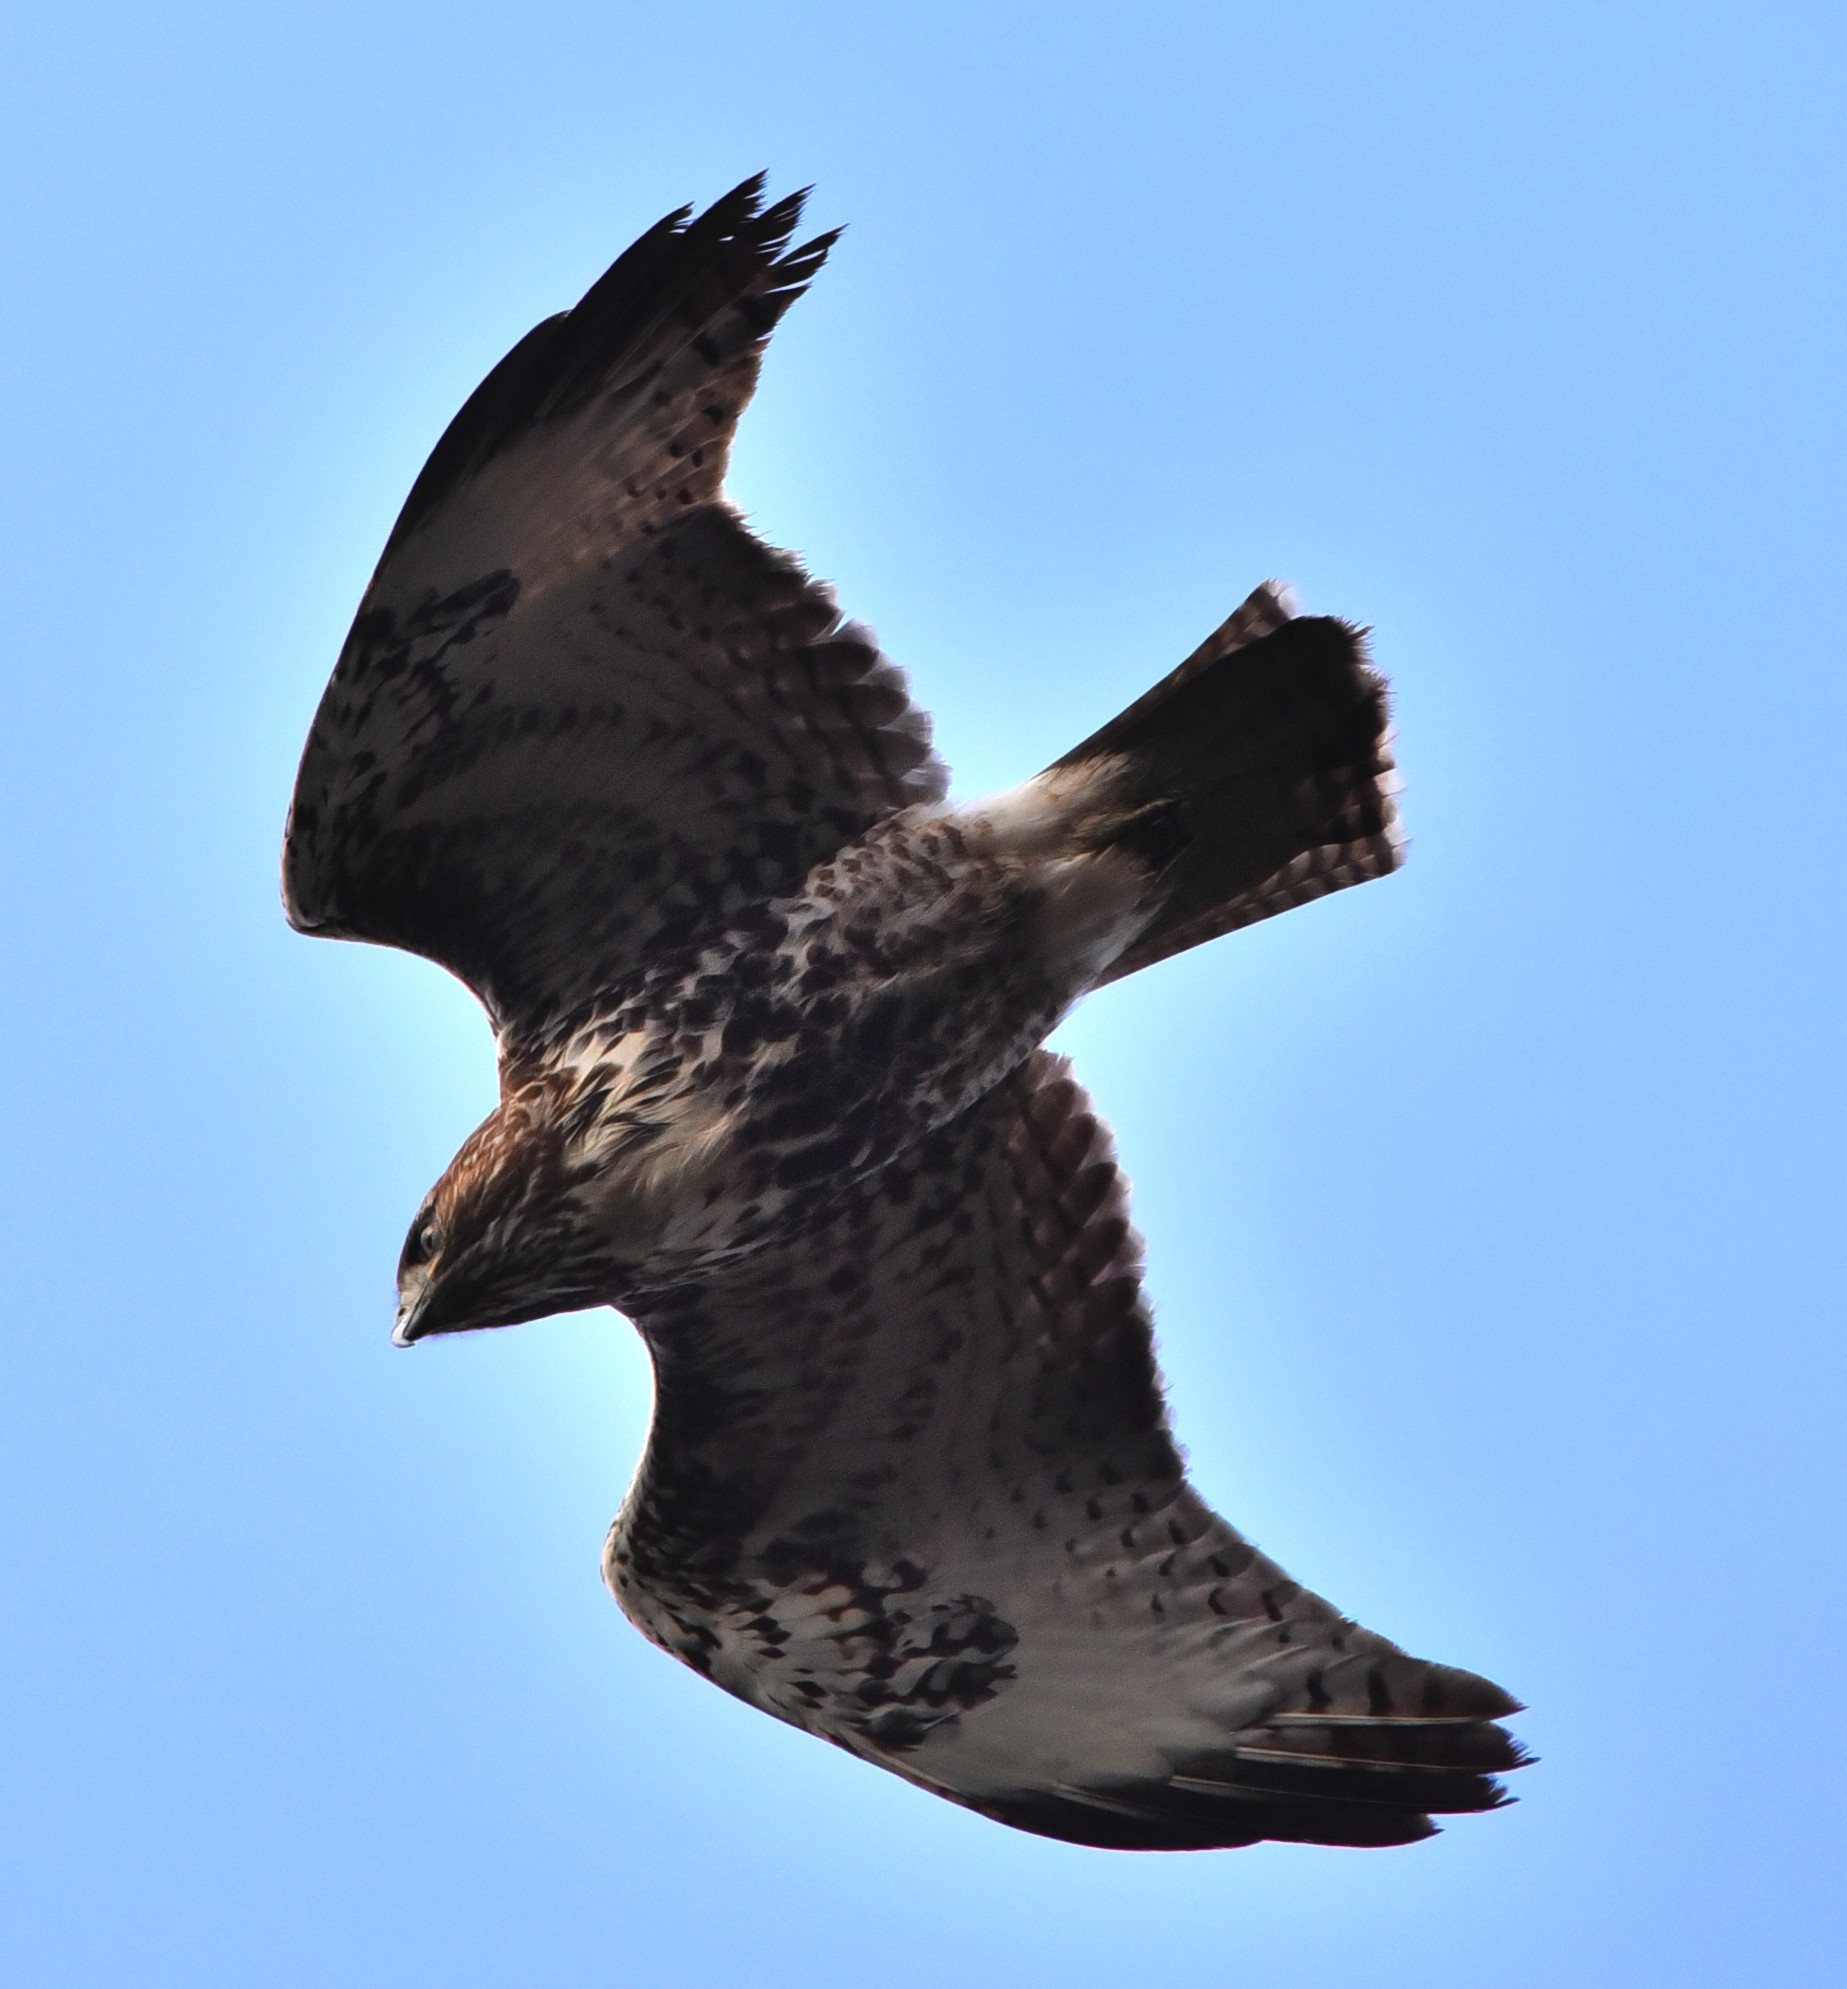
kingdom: Animalia
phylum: Chordata
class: Aves
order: Accipitriformes
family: Accipitridae
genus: Buteo
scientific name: Buteo jamaicensis
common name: Red-tailed hawk
